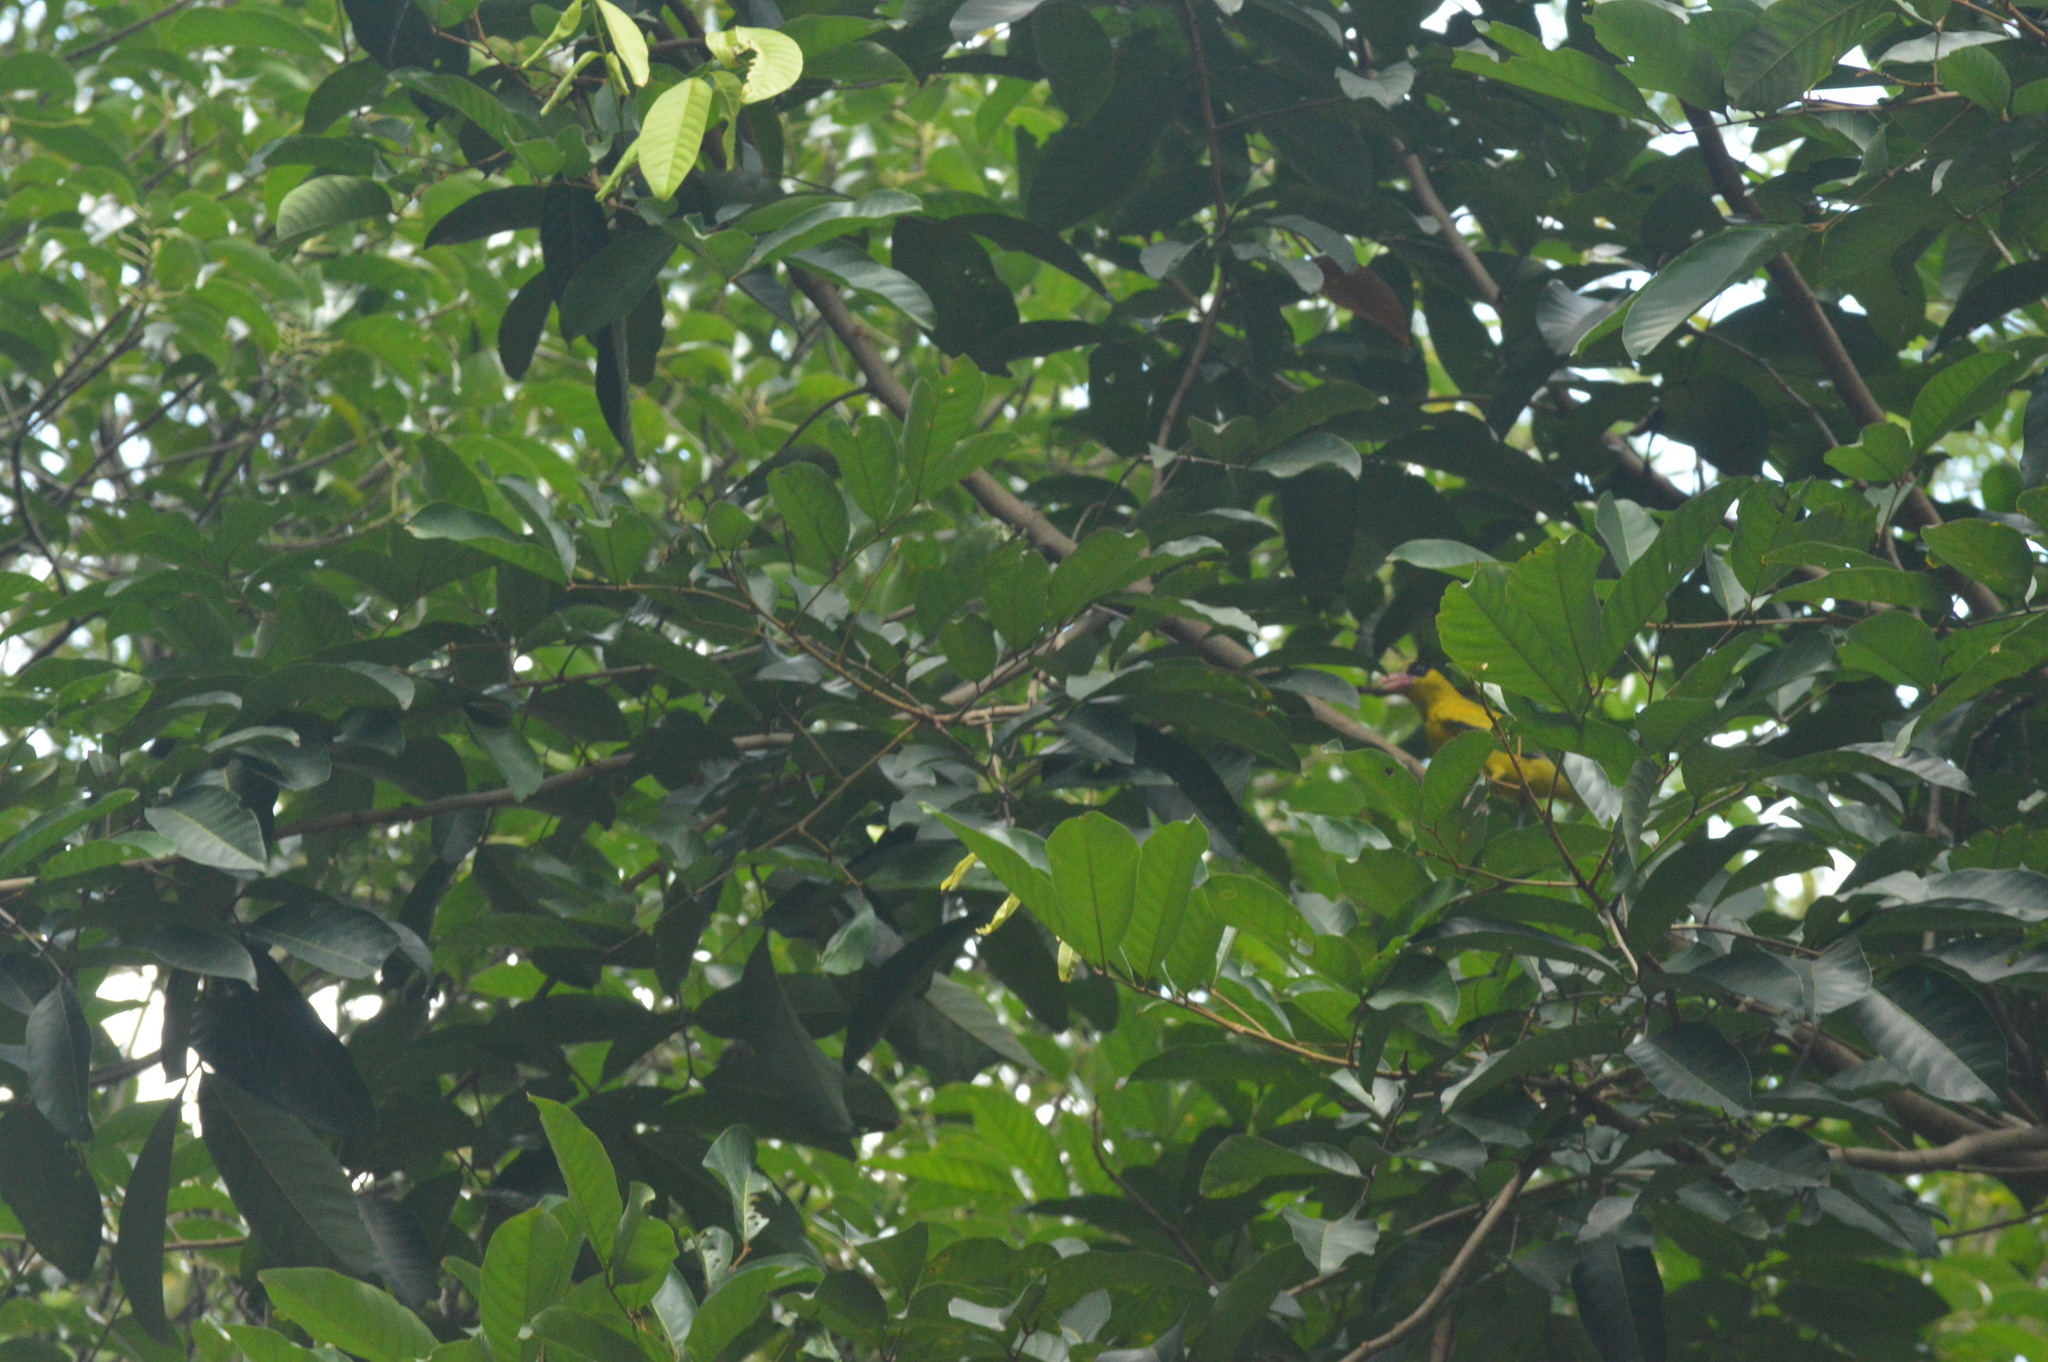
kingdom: Animalia
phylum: Chordata
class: Aves
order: Passeriformes
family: Oriolidae
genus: Oriolus
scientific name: Oriolus chinensis
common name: Black-naped oriole
